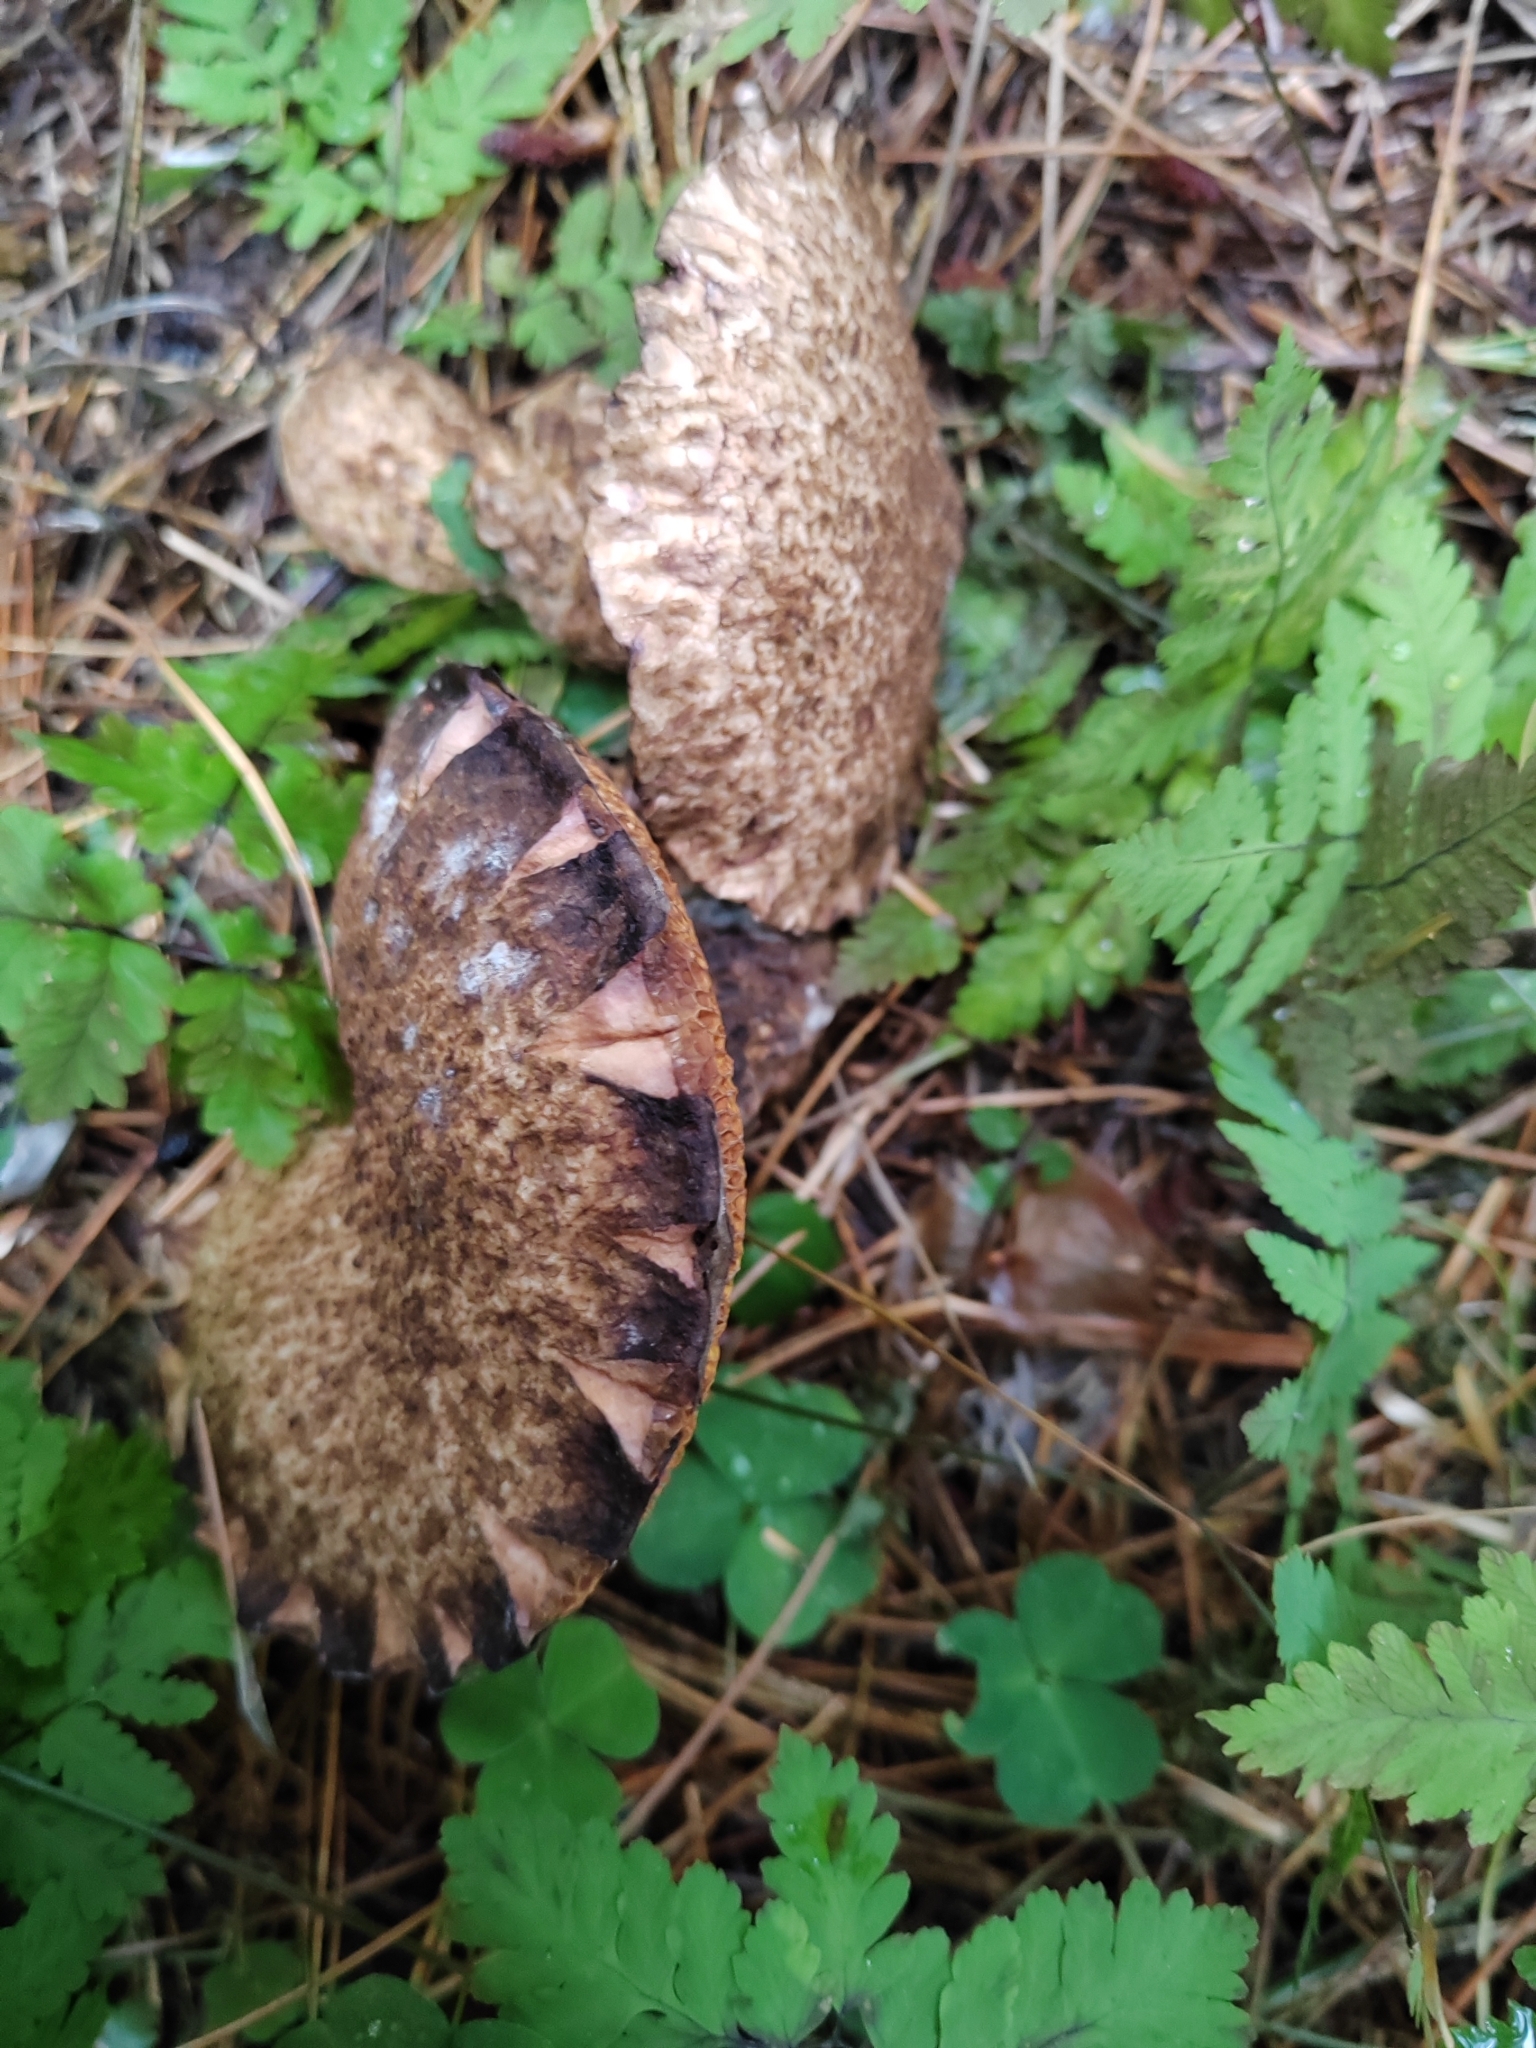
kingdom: Fungi
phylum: Basidiomycota
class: Agaricomycetes
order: Boletales
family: Suillaceae
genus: Suillus
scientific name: Suillus spraguei
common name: Painted suillus
